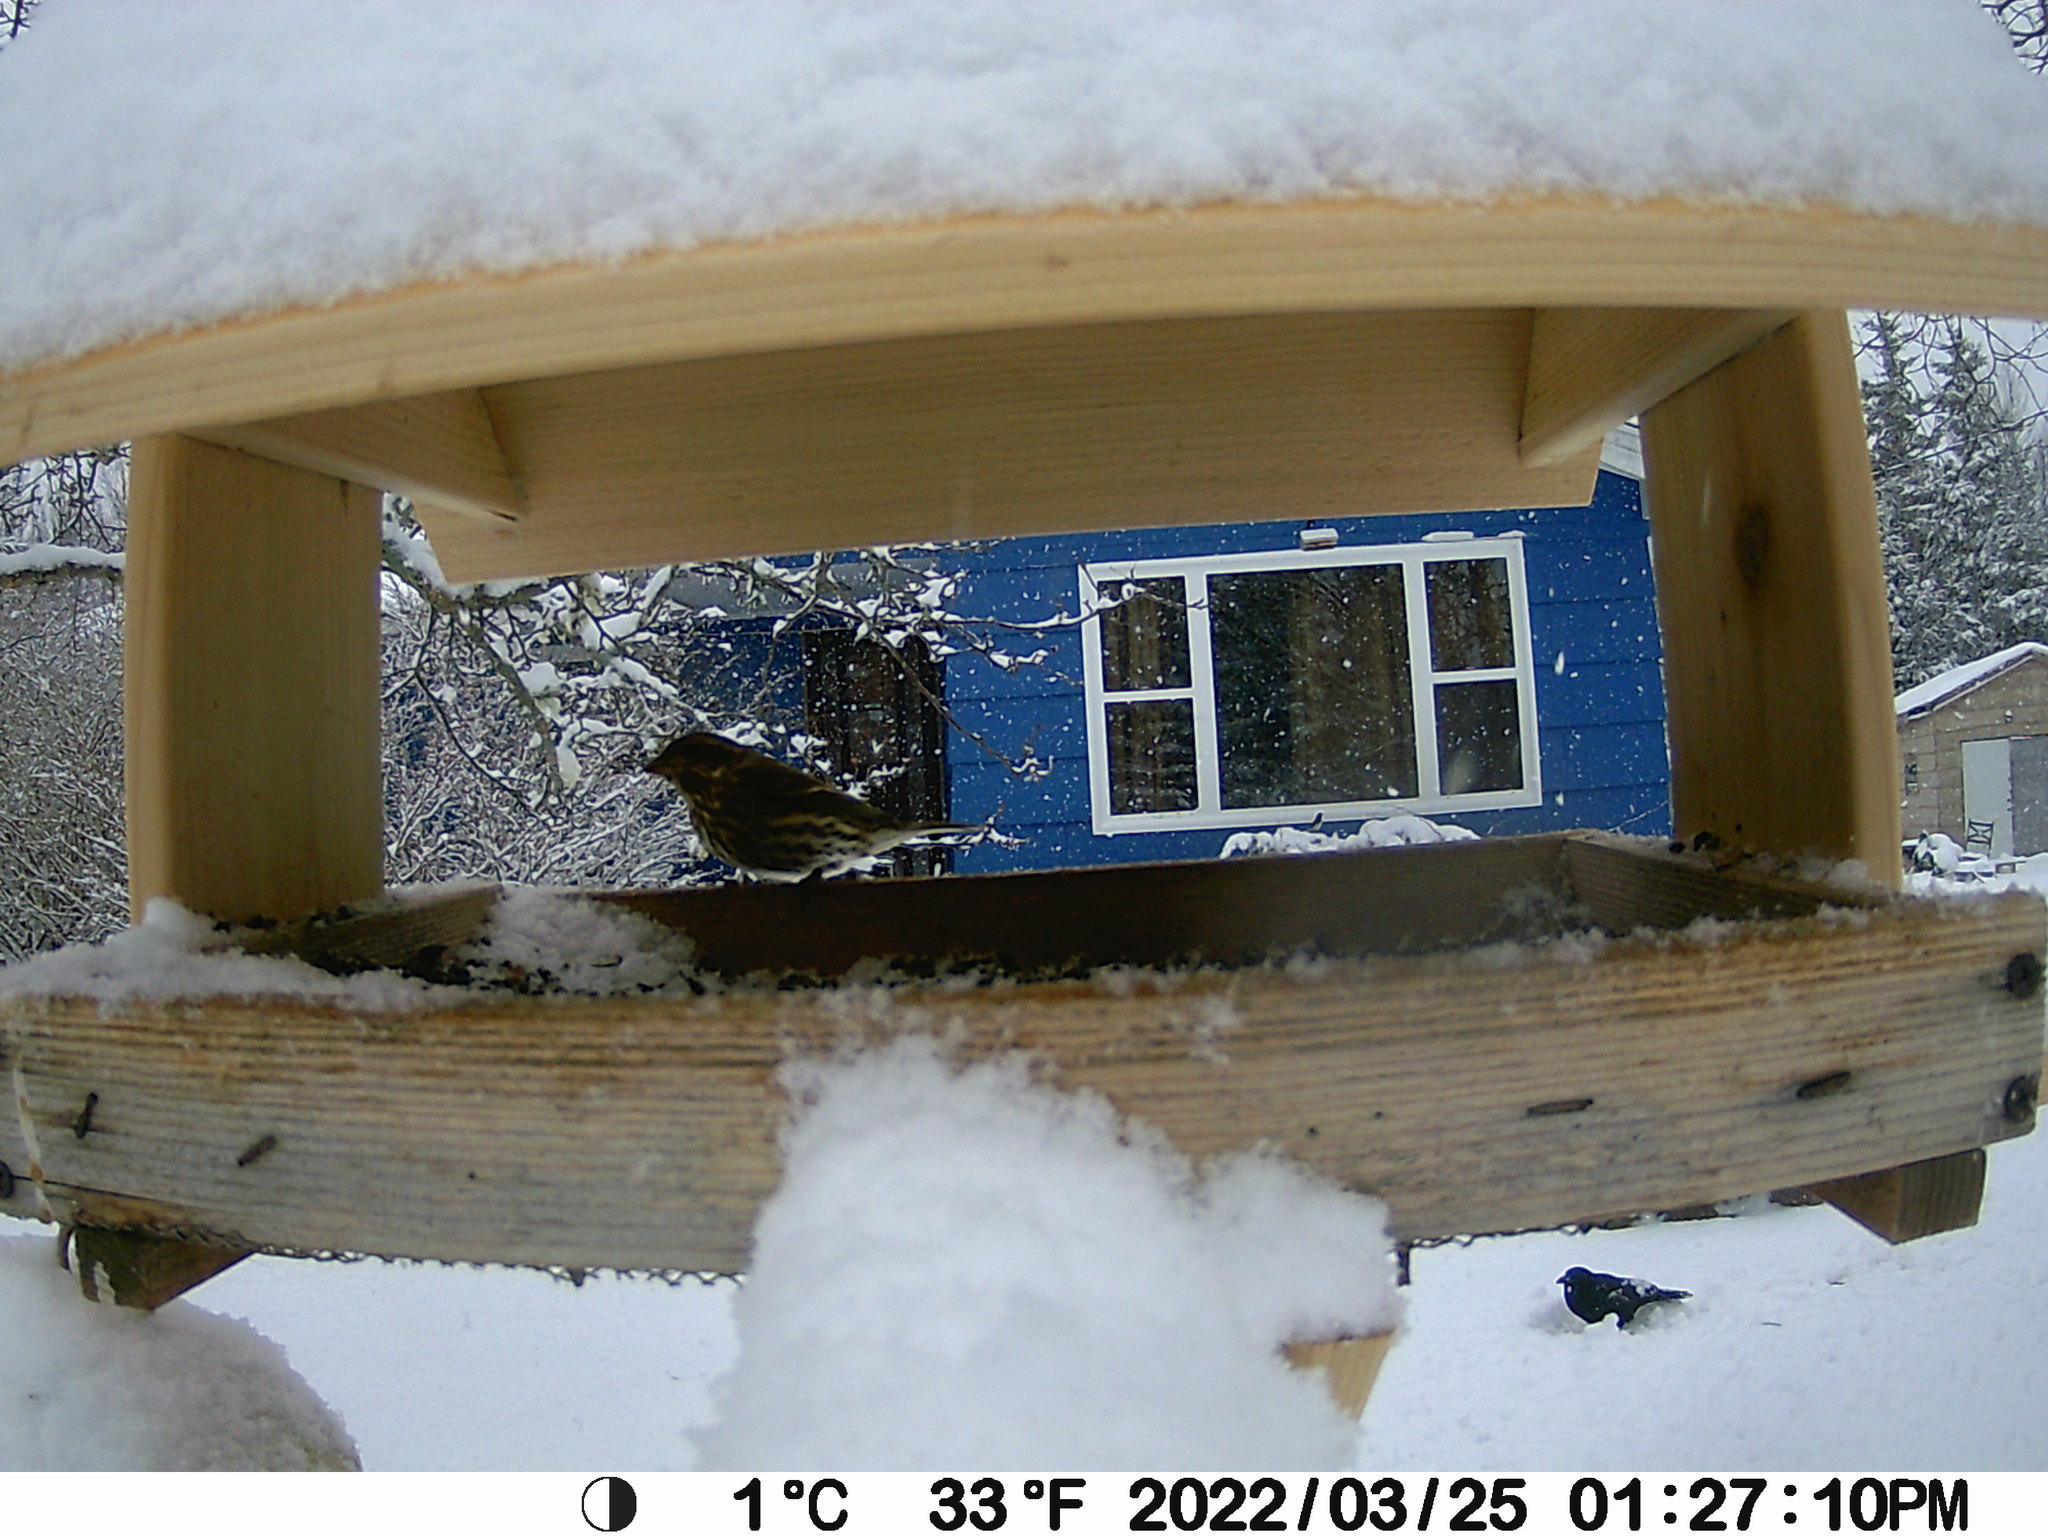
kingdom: Animalia
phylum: Chordata
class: Aves
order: Passeriformes
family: Corvidae
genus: Corvus
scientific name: Corvus brachyrhynchos
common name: American crow
